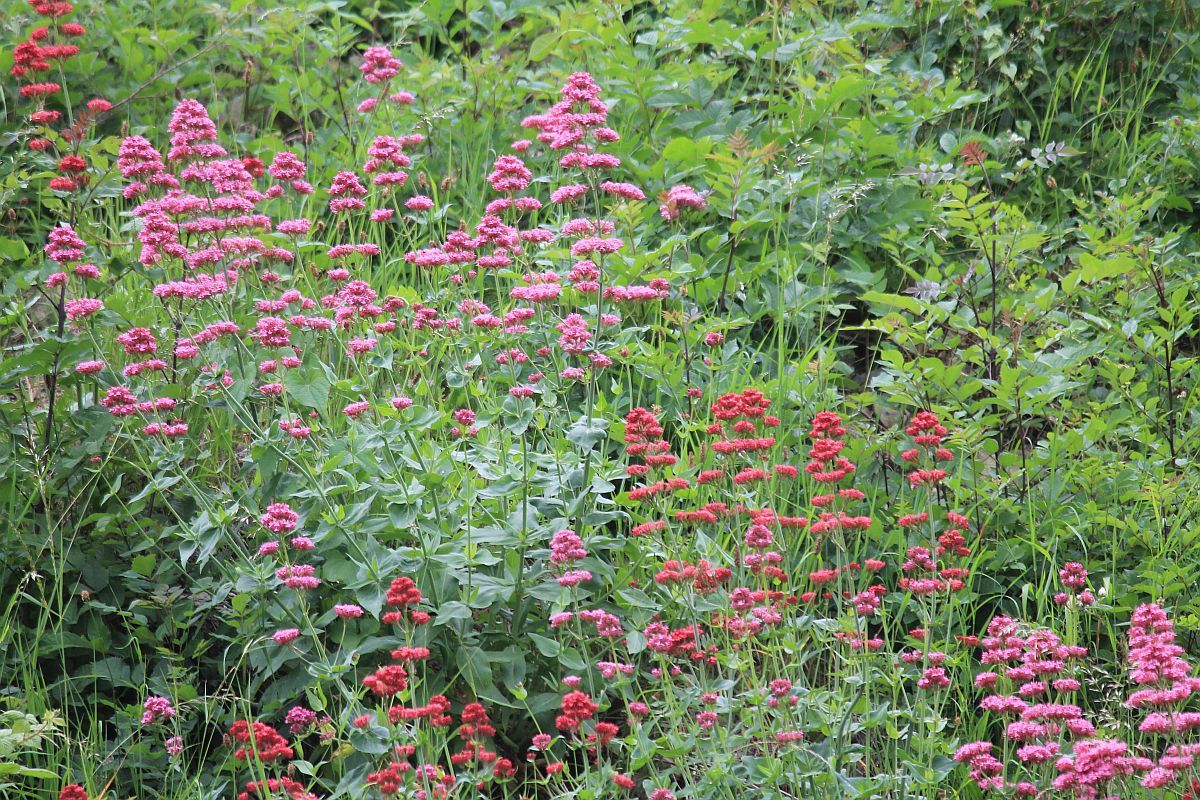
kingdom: Plantae
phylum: Tracheophyta
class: Magnoliopsida
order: Dipsacales
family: Caprifoliaceae
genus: Centranthus
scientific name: Centranthus ruber
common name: Red valerian
